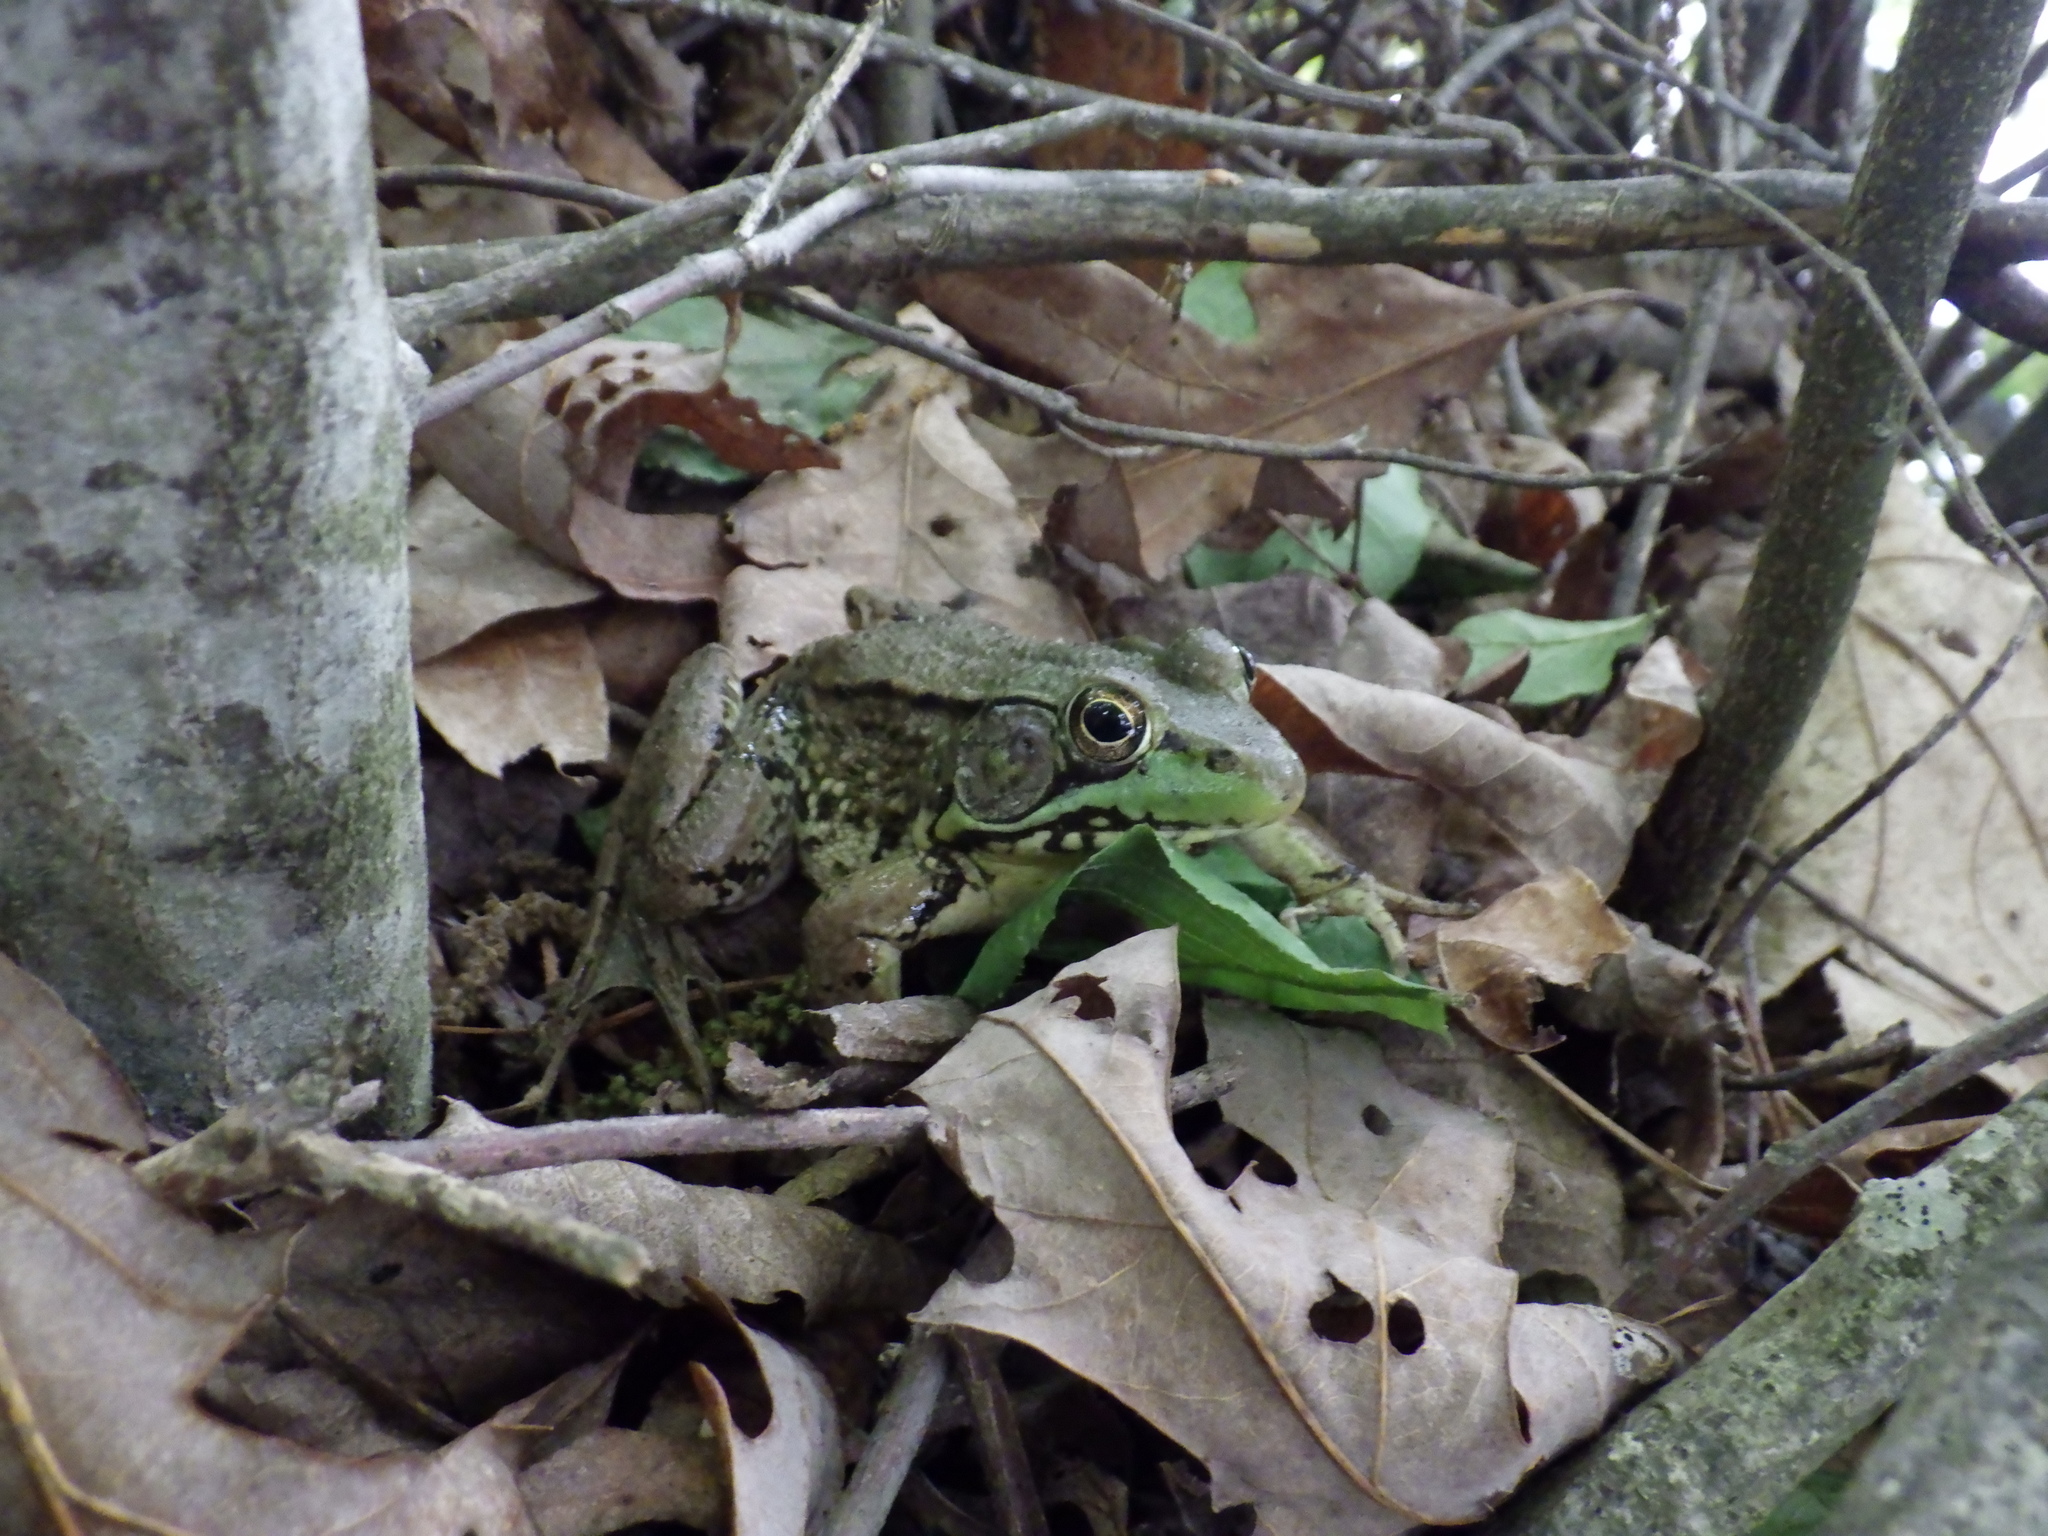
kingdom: Animalia
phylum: Chordata
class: Amphibia
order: Anura
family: Ranidae
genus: Lithobates
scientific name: Lithobates clamitans
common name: Green frog
